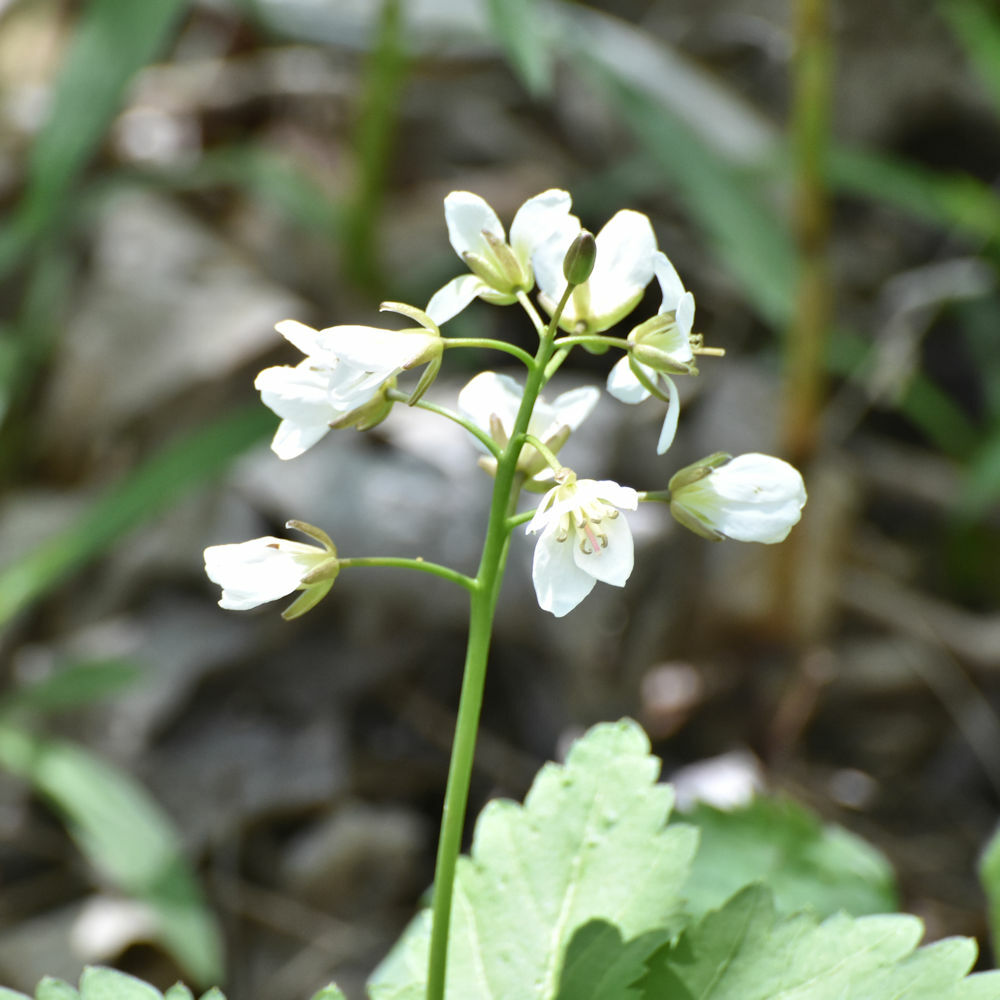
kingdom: Plantae
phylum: Tracheophyta
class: Magnoliopsida
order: Brassicales
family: Brassicaceae
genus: Cardamine
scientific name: Cardamine diphylla
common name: Broad-leaved toothwort
